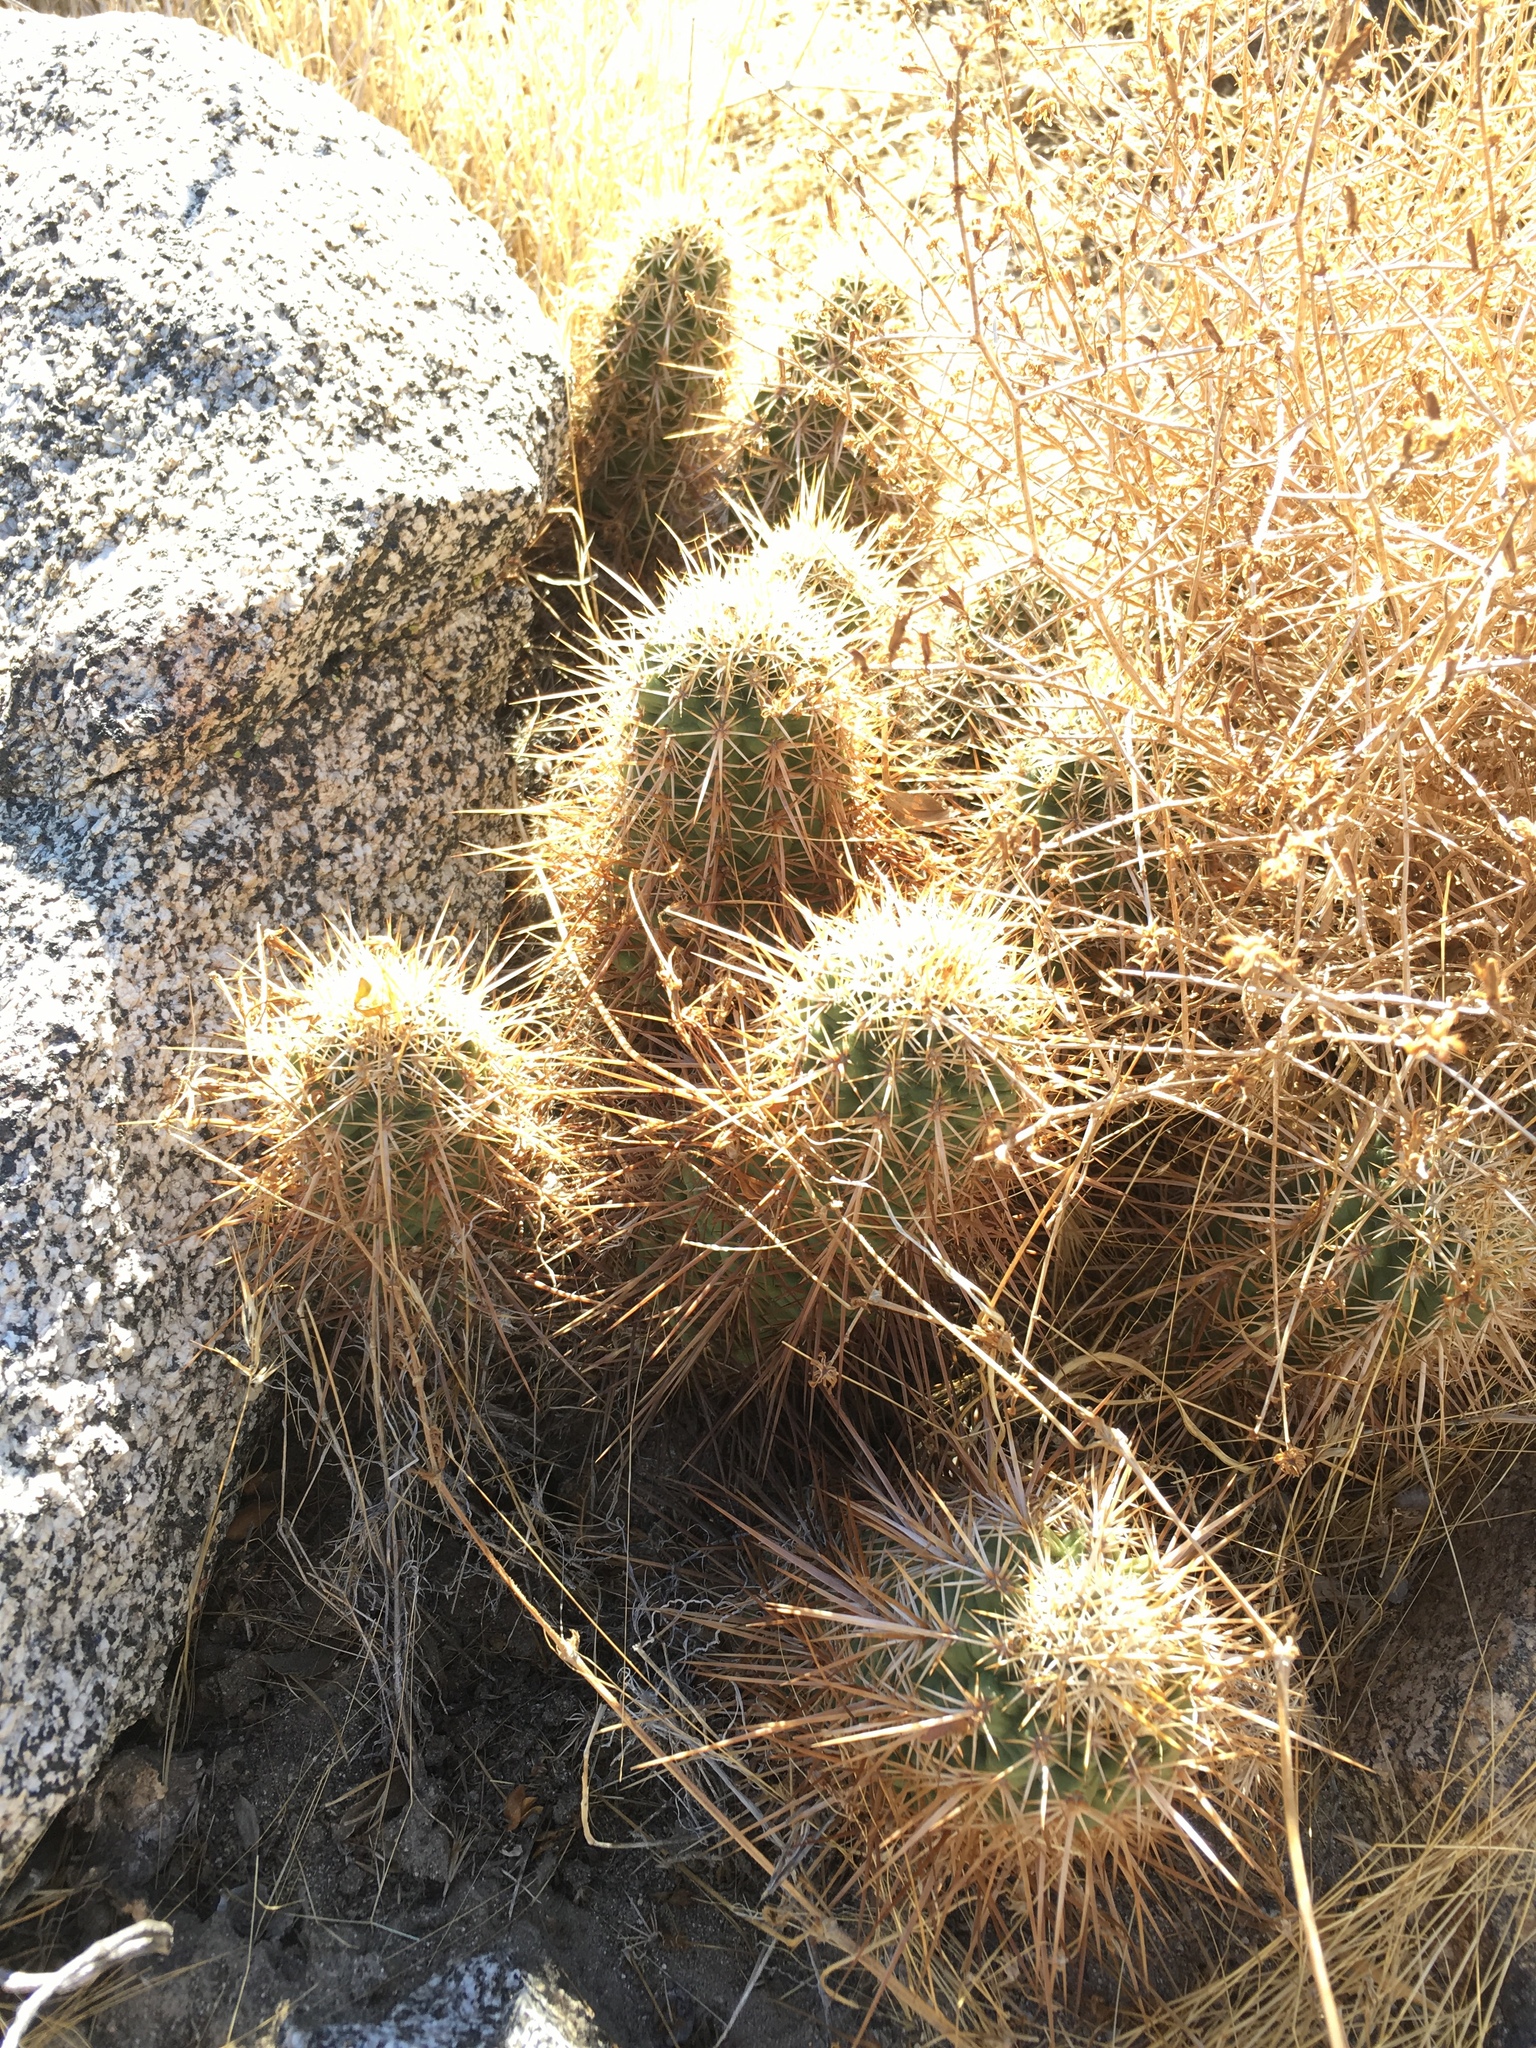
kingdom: Plantae
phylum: Tracheophyta
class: Magnoliopsida
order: Caryophyllales
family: Cactaceae
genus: Echinocereus
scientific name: Echinocereus engelmannii
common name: Engelmann's hedgehog cactus
